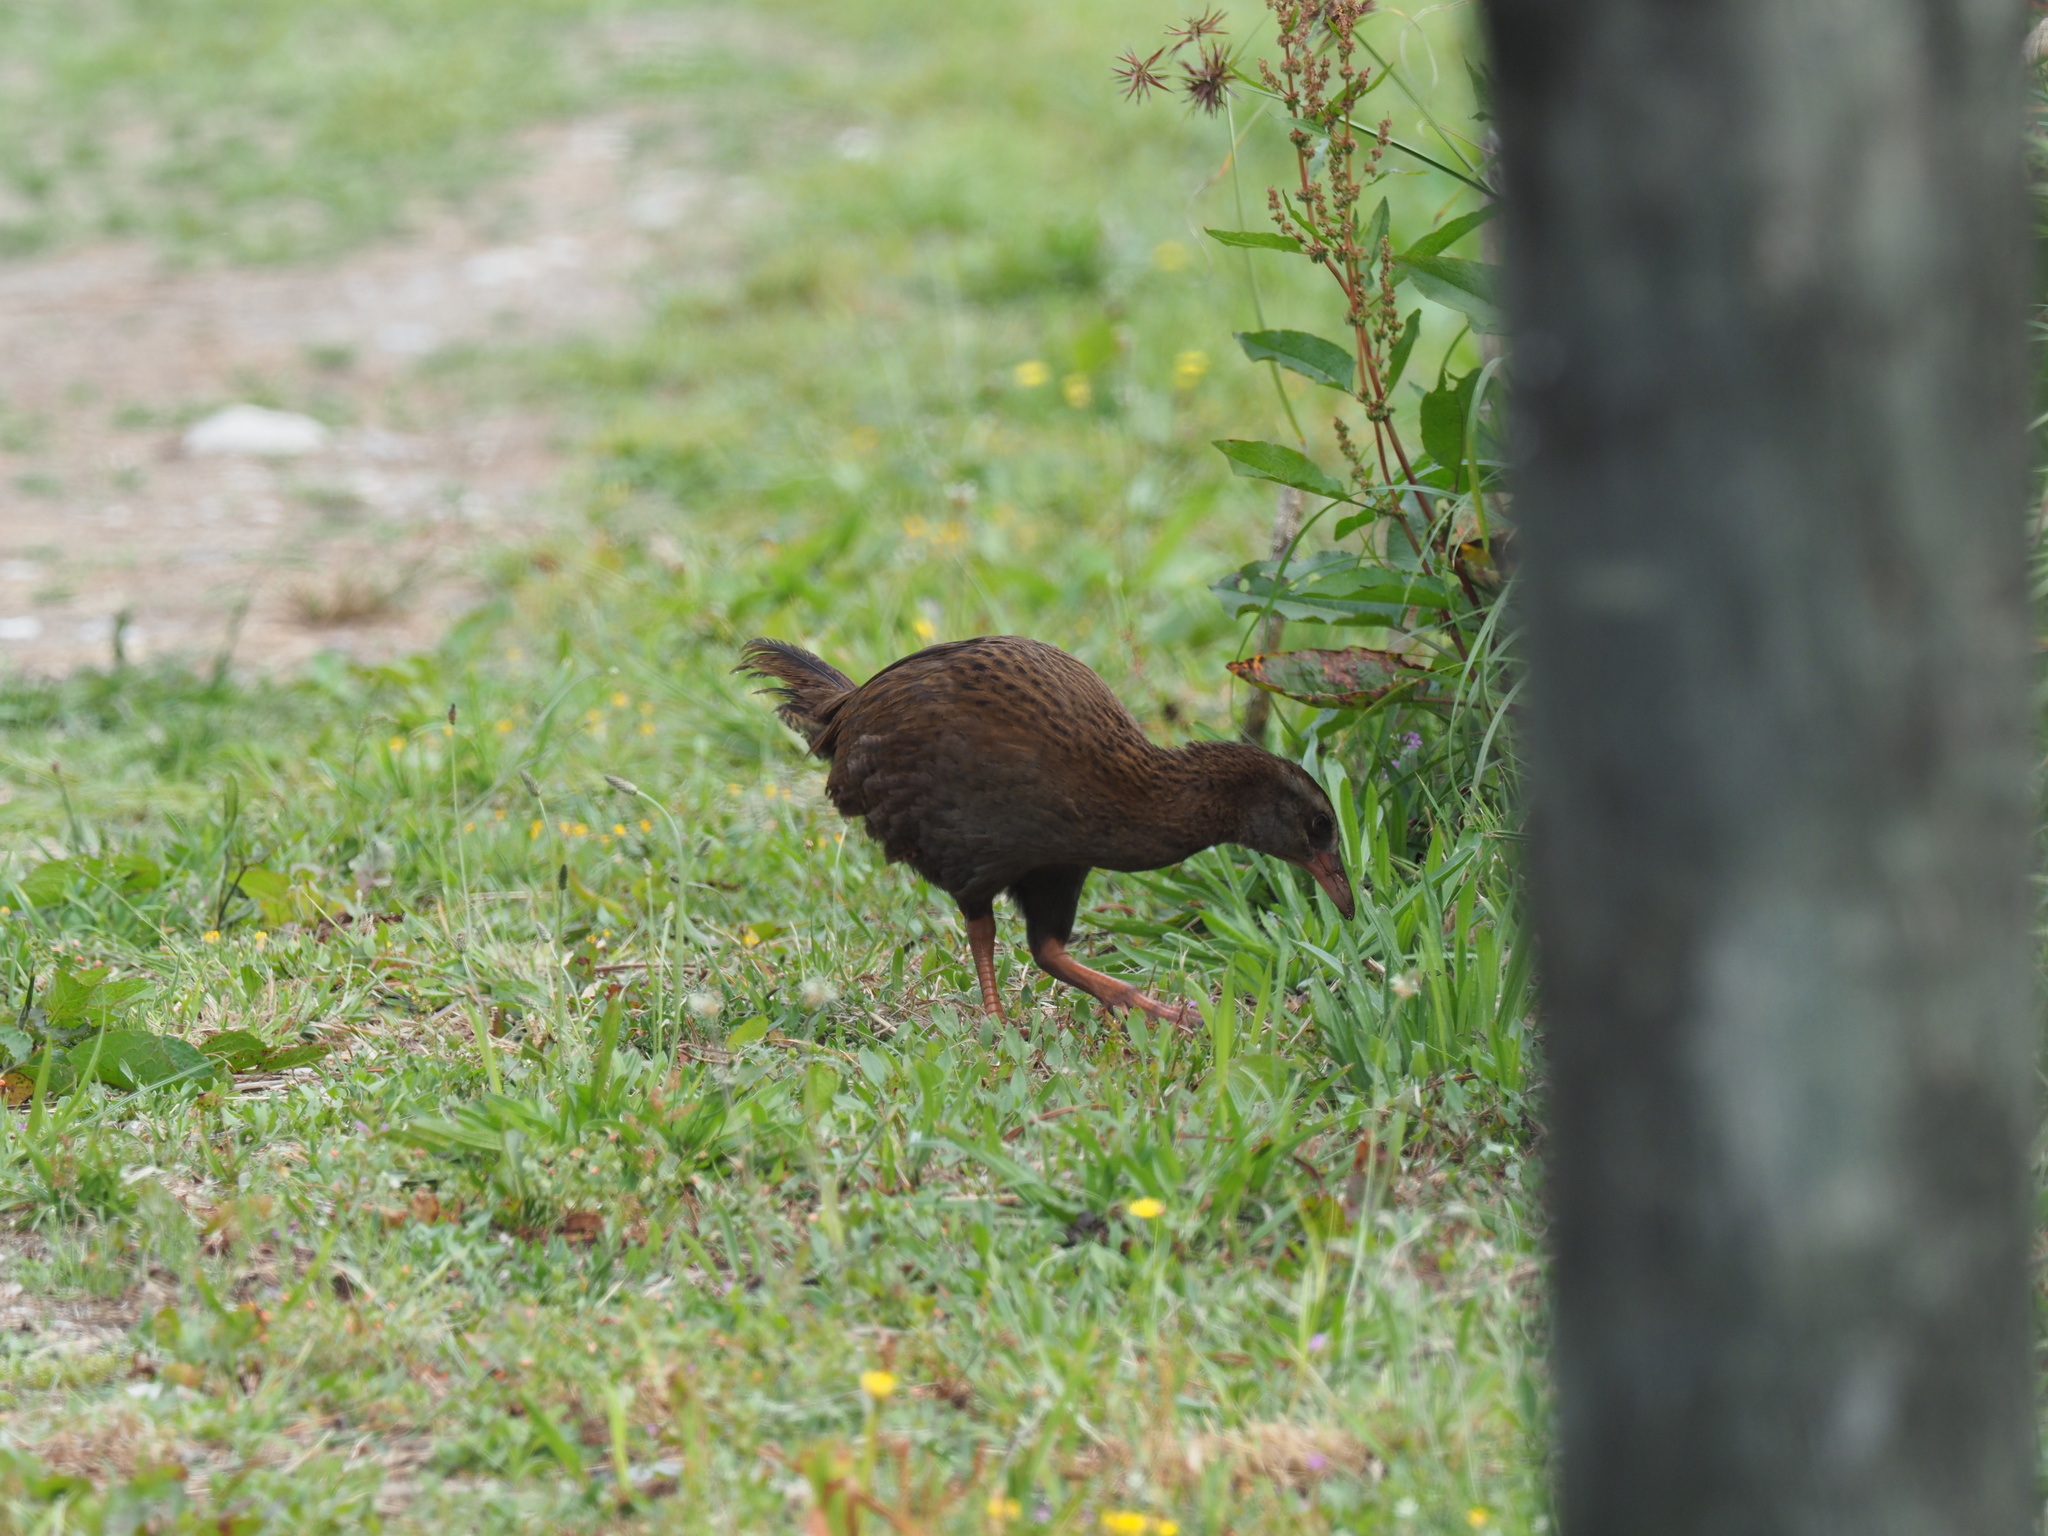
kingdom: Animalia
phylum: Chordata
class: Aves
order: Gruiformes
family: Rallidae
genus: Gallirallus
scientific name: Gallirallus australis
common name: Weka
